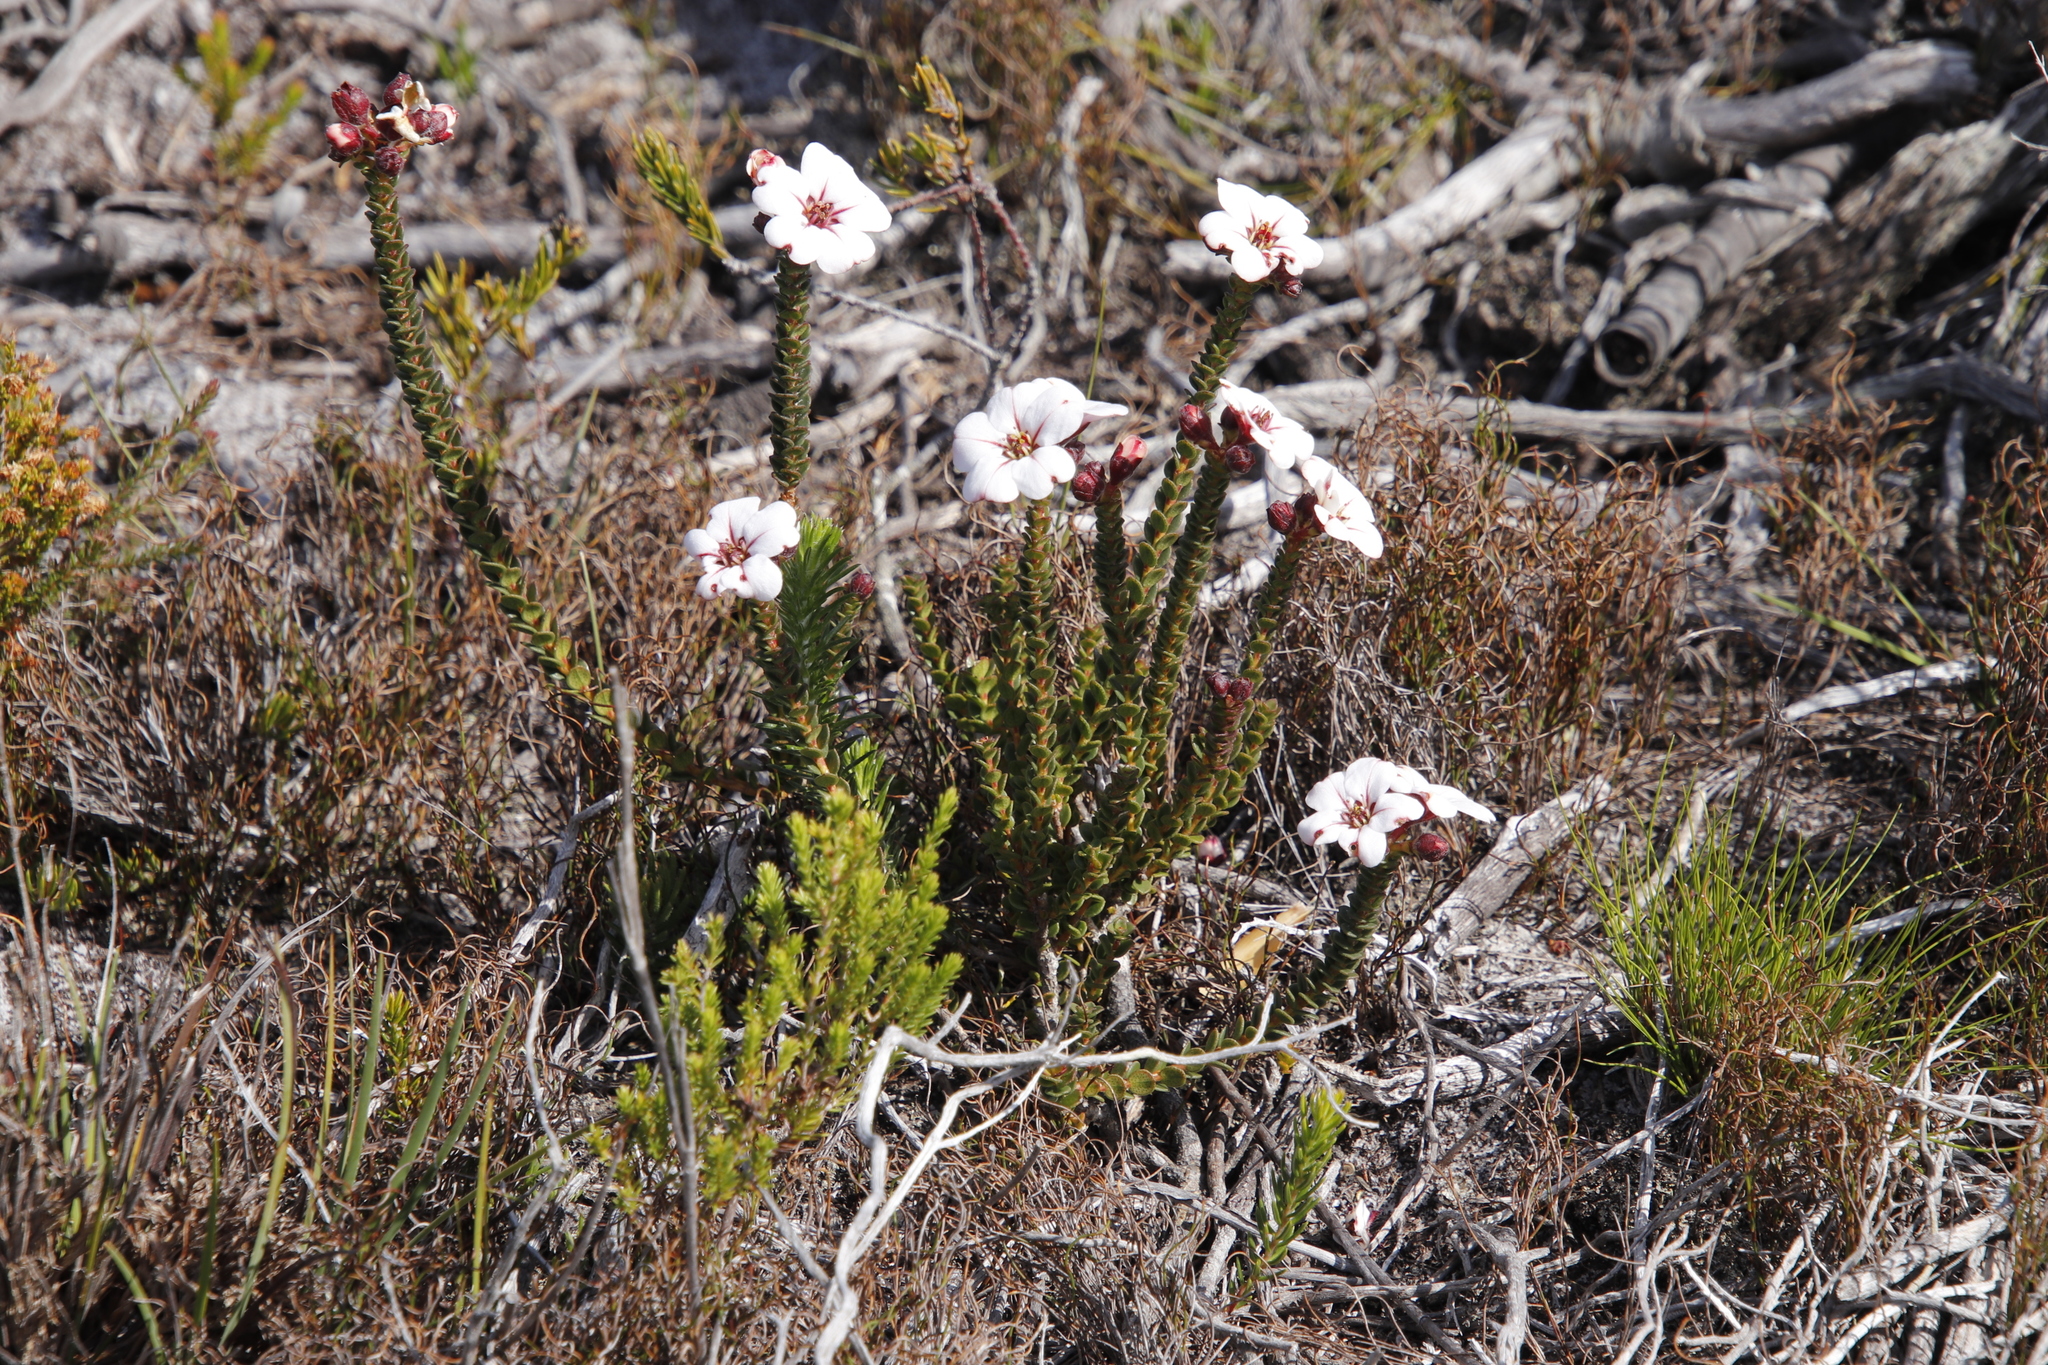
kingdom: Plantae
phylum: Tracheophyta
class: Magnoliopsida
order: Sapindales
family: Rutaceae
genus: Adenandra
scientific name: Adenandra villosa
